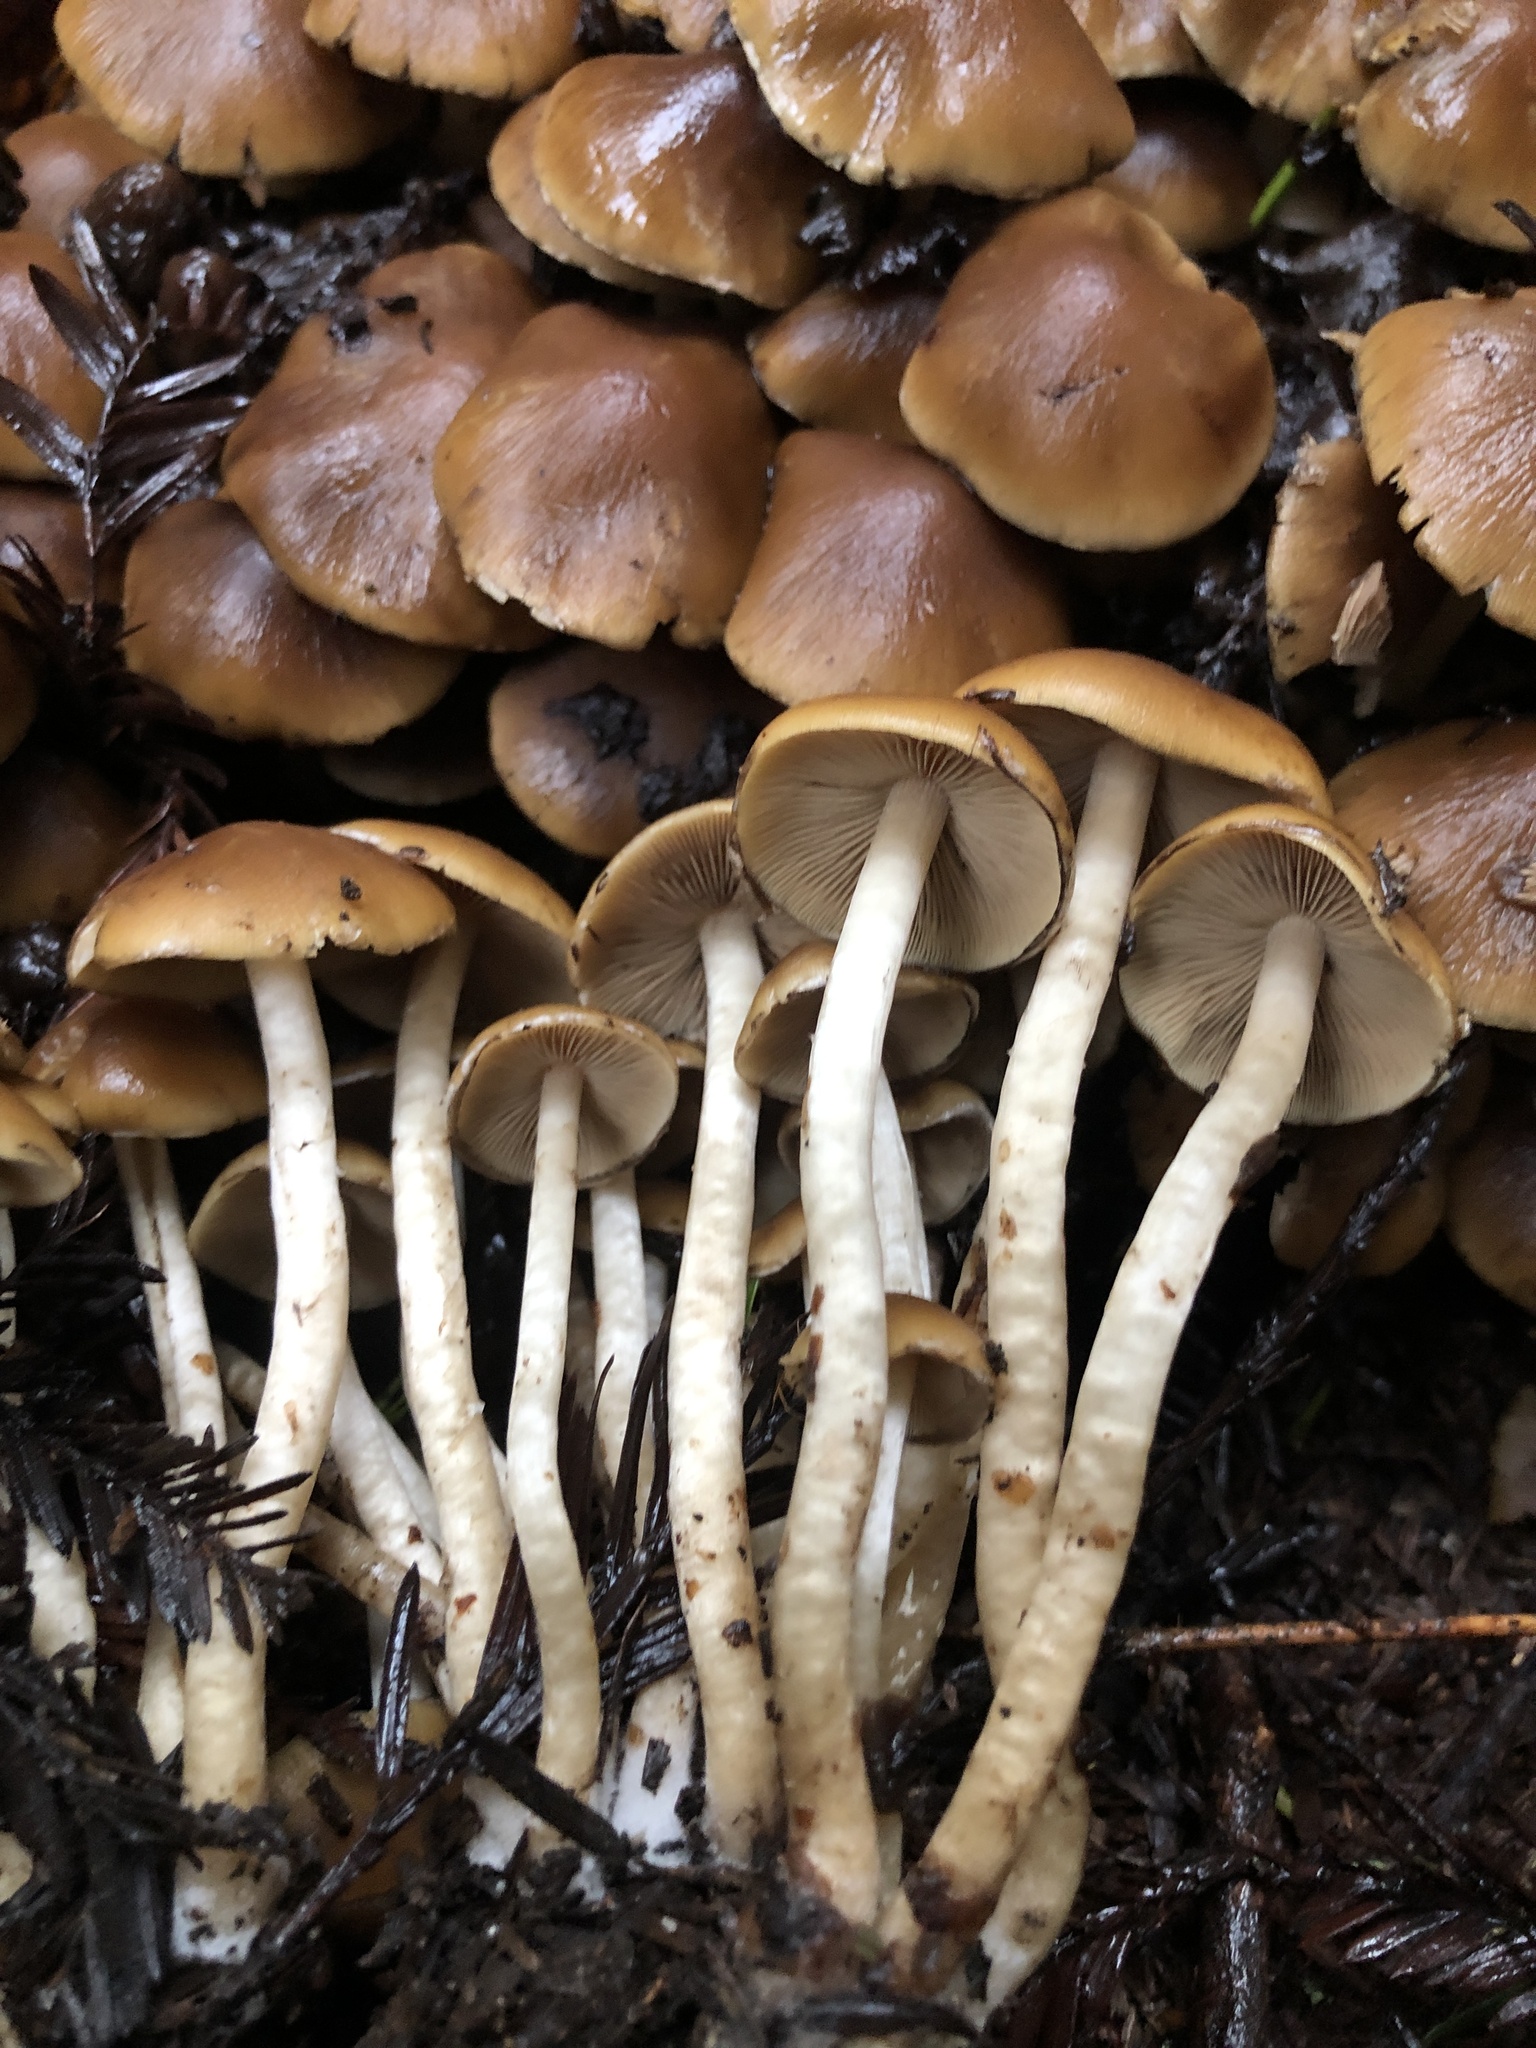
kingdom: Fungi
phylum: Basidiomycota
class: Agaricomycetes
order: Agaricales
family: Psathyrellaceae
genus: Psathyrella
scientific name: Psathyrella piluliformis
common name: Common stump brittlestem
